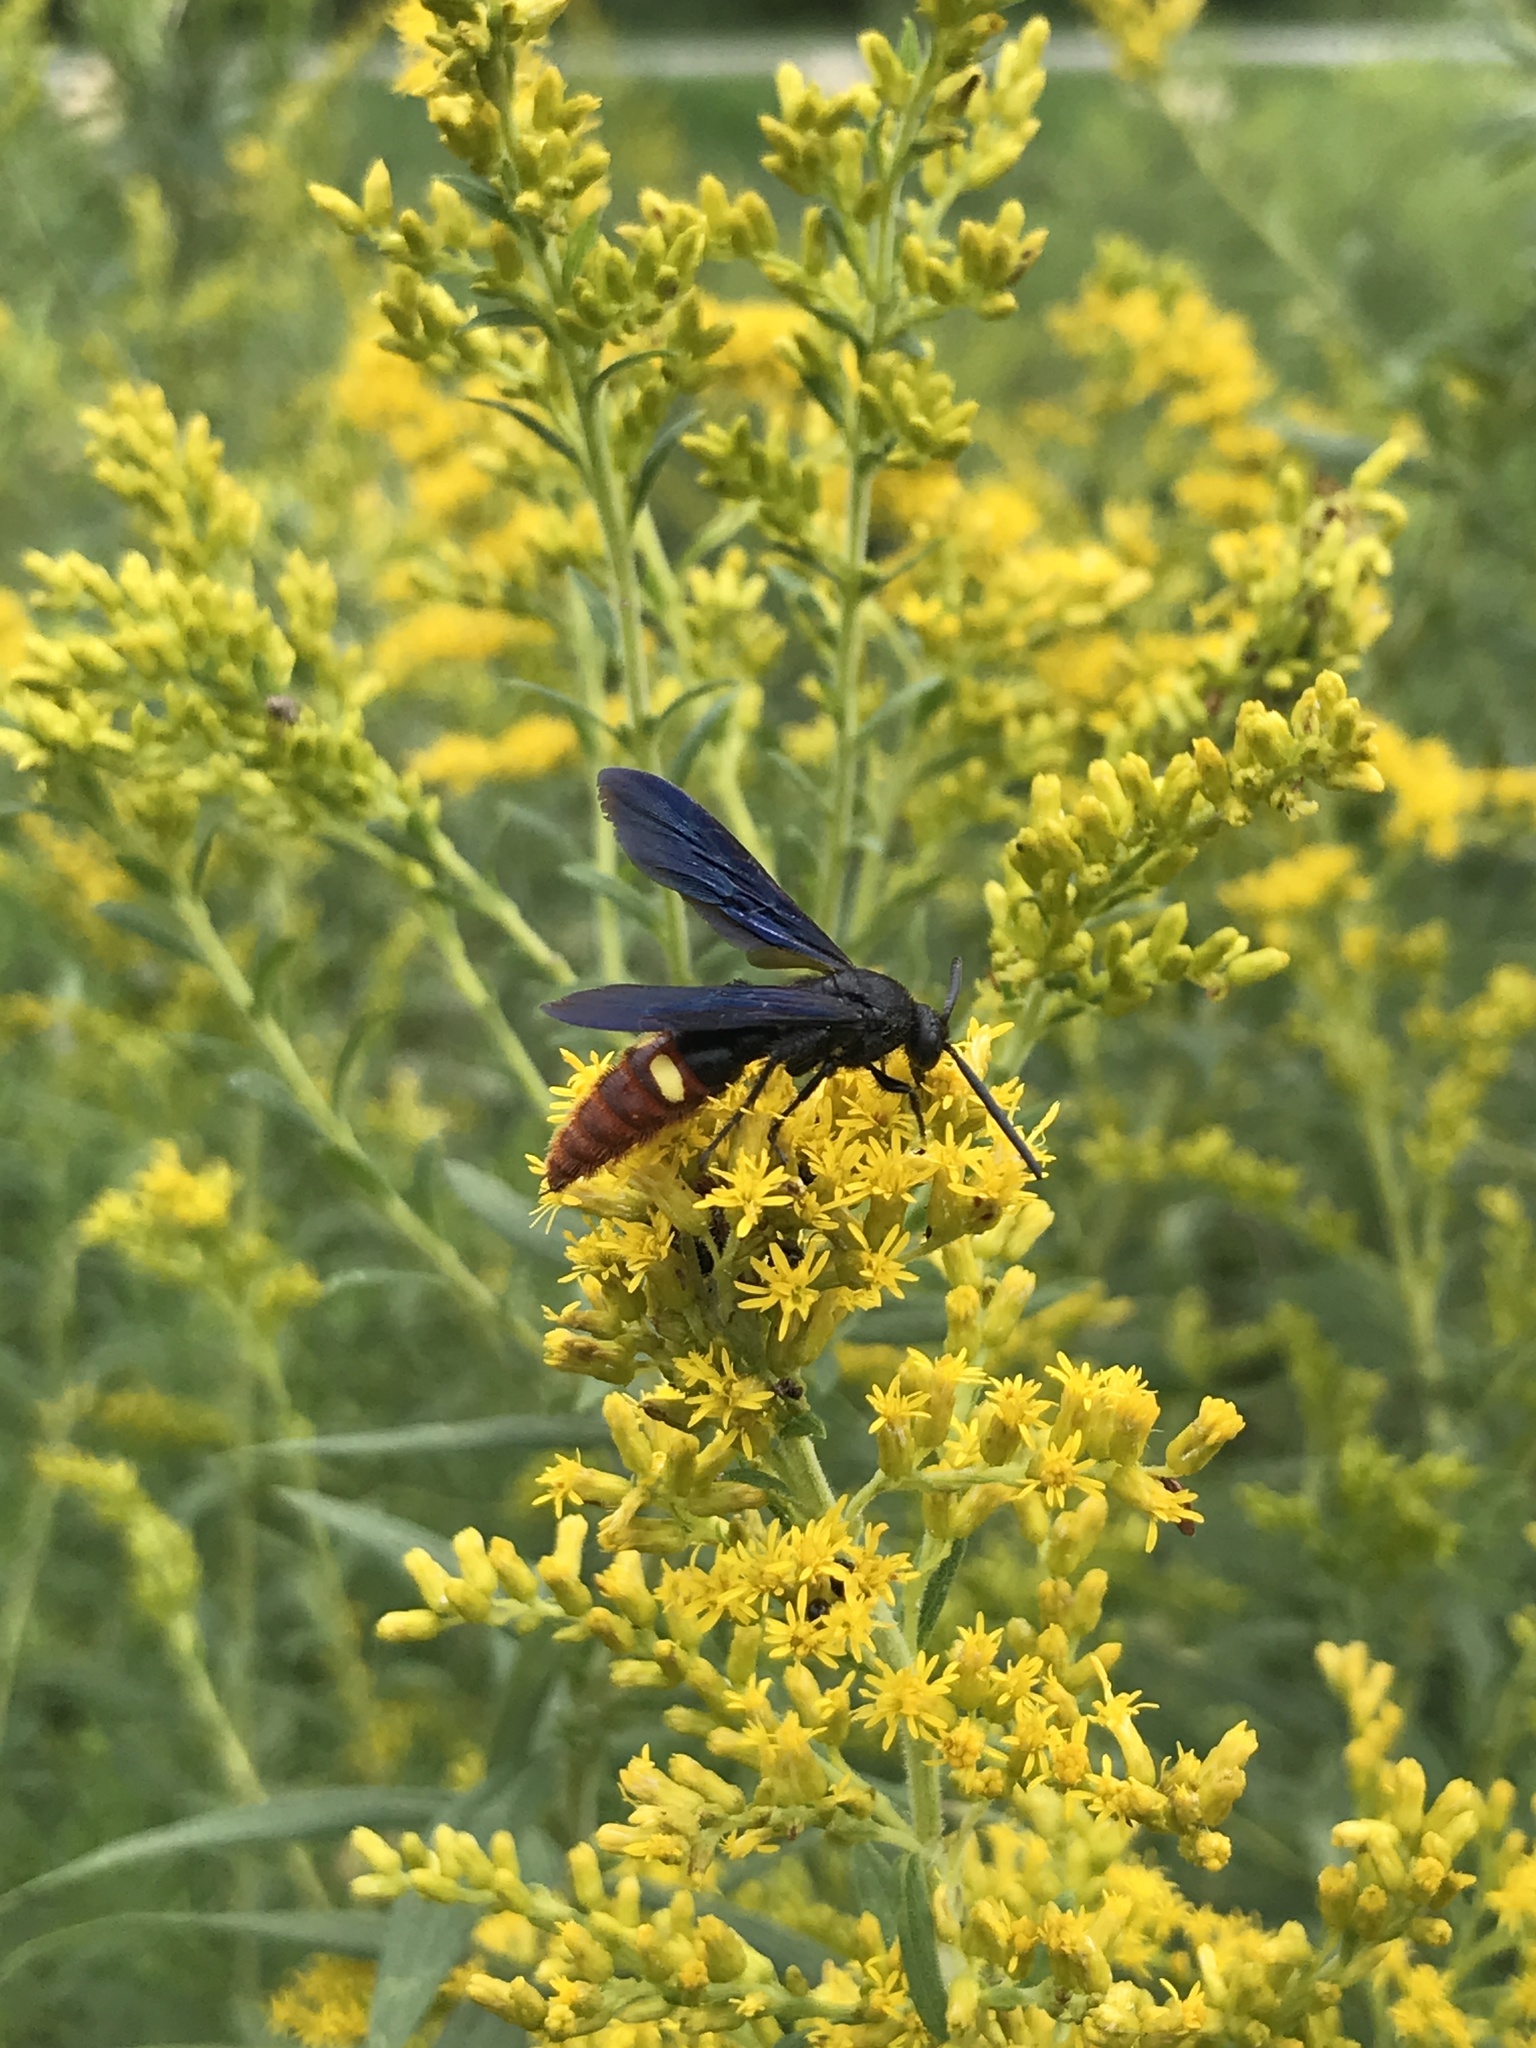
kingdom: Animalia
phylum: Arthropoda
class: Insecta
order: Hymenoptera
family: Scoliidae
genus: Scolia
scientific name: Scolia dubia
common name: Blue-winged scoliid wasp
